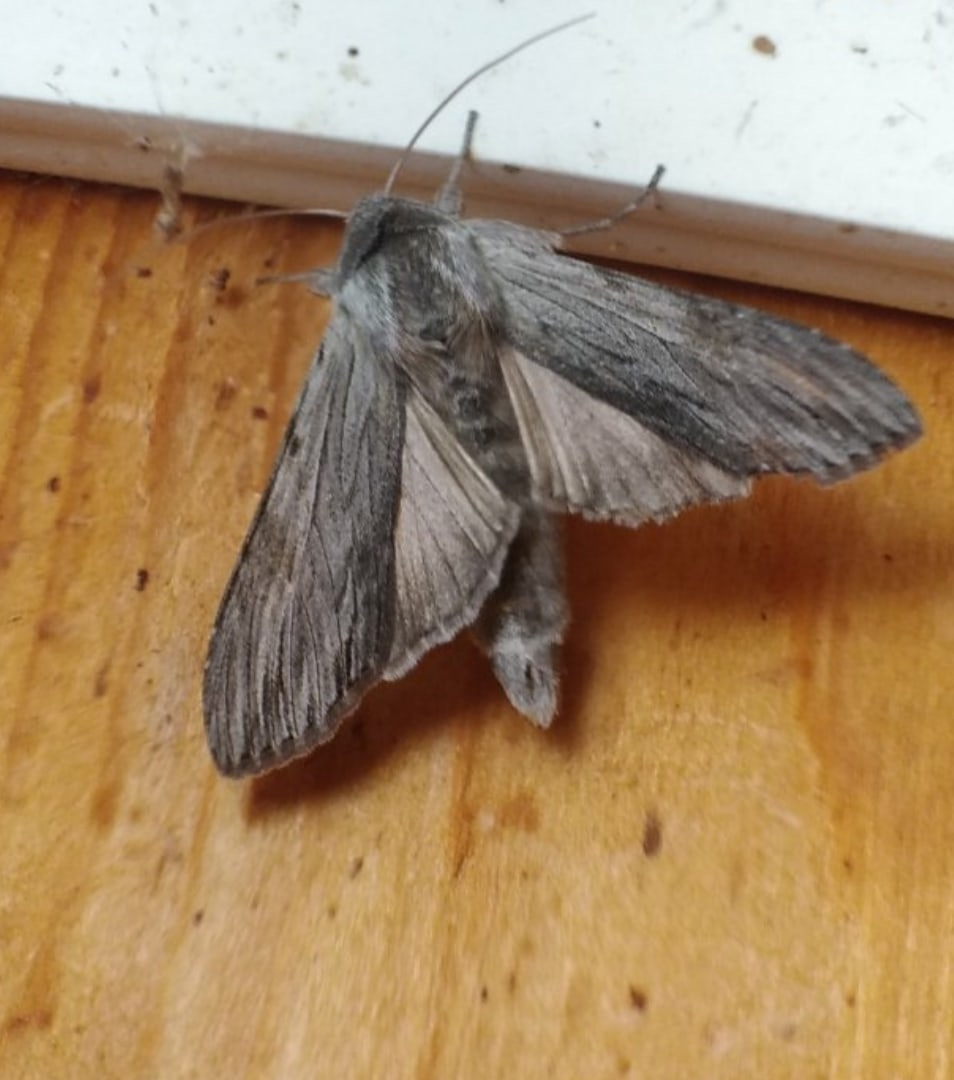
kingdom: Animalia
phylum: Arthropoda
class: Insecta
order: Lepidoptera
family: Noctuidae
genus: Cucullia
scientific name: Cucullia pustulata
